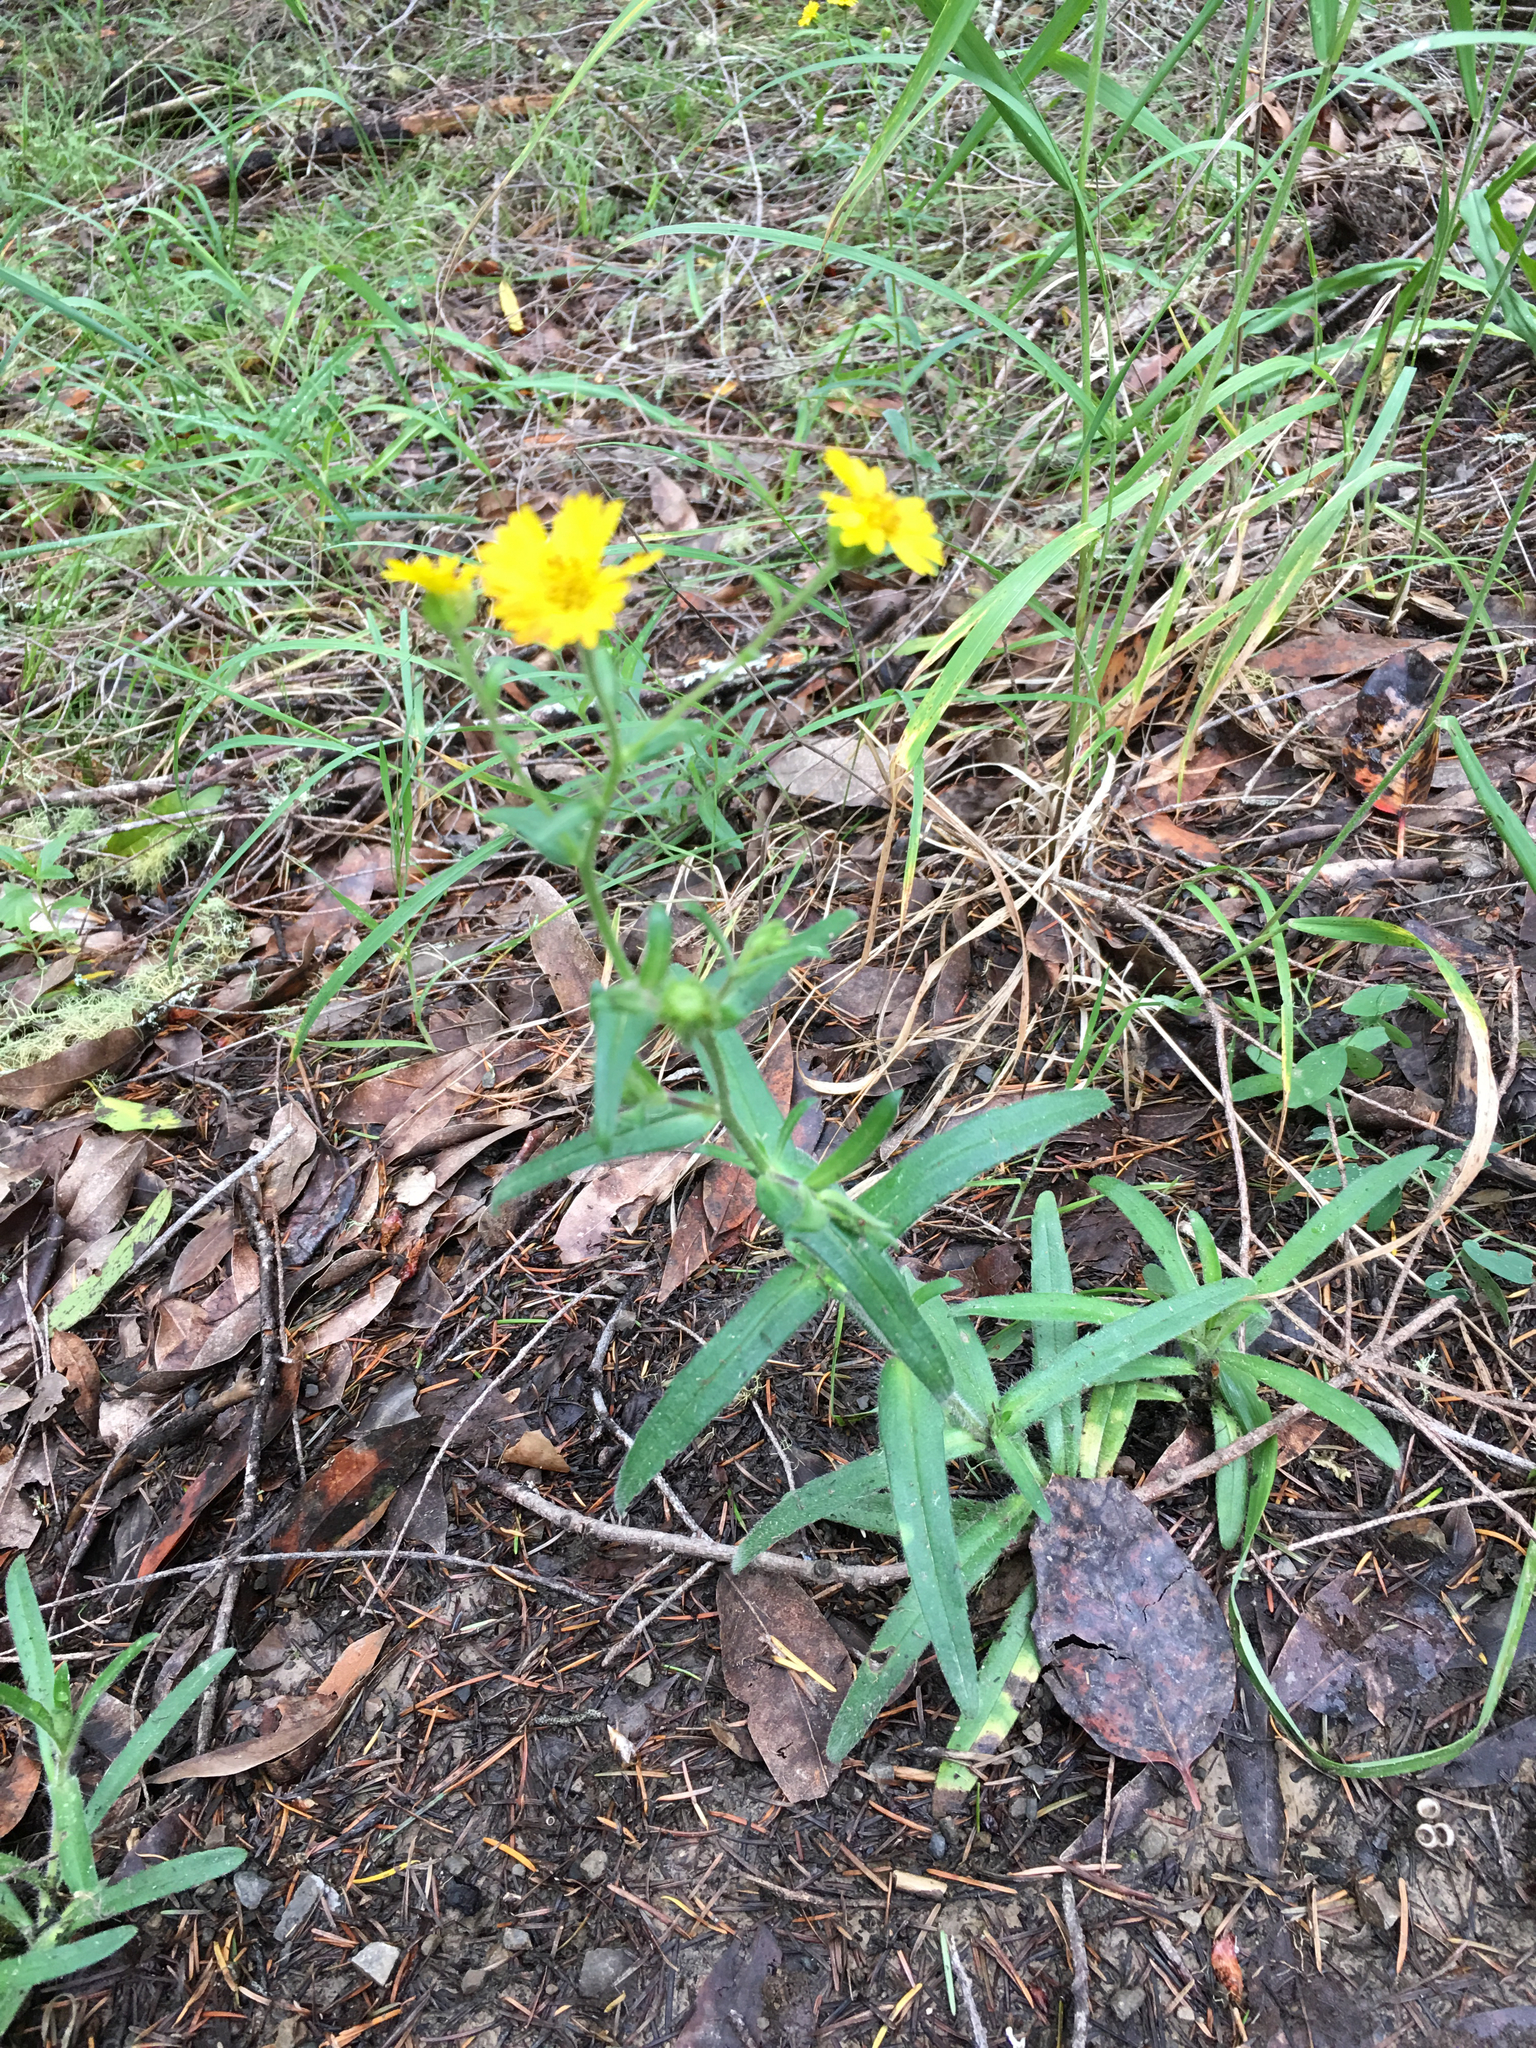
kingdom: Plantae
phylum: Tracheophyta
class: Magnoliopsida
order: Asterales
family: Asteraceae
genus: Anisocarpus
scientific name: Anisocarpus madioides
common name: Woodland madia
